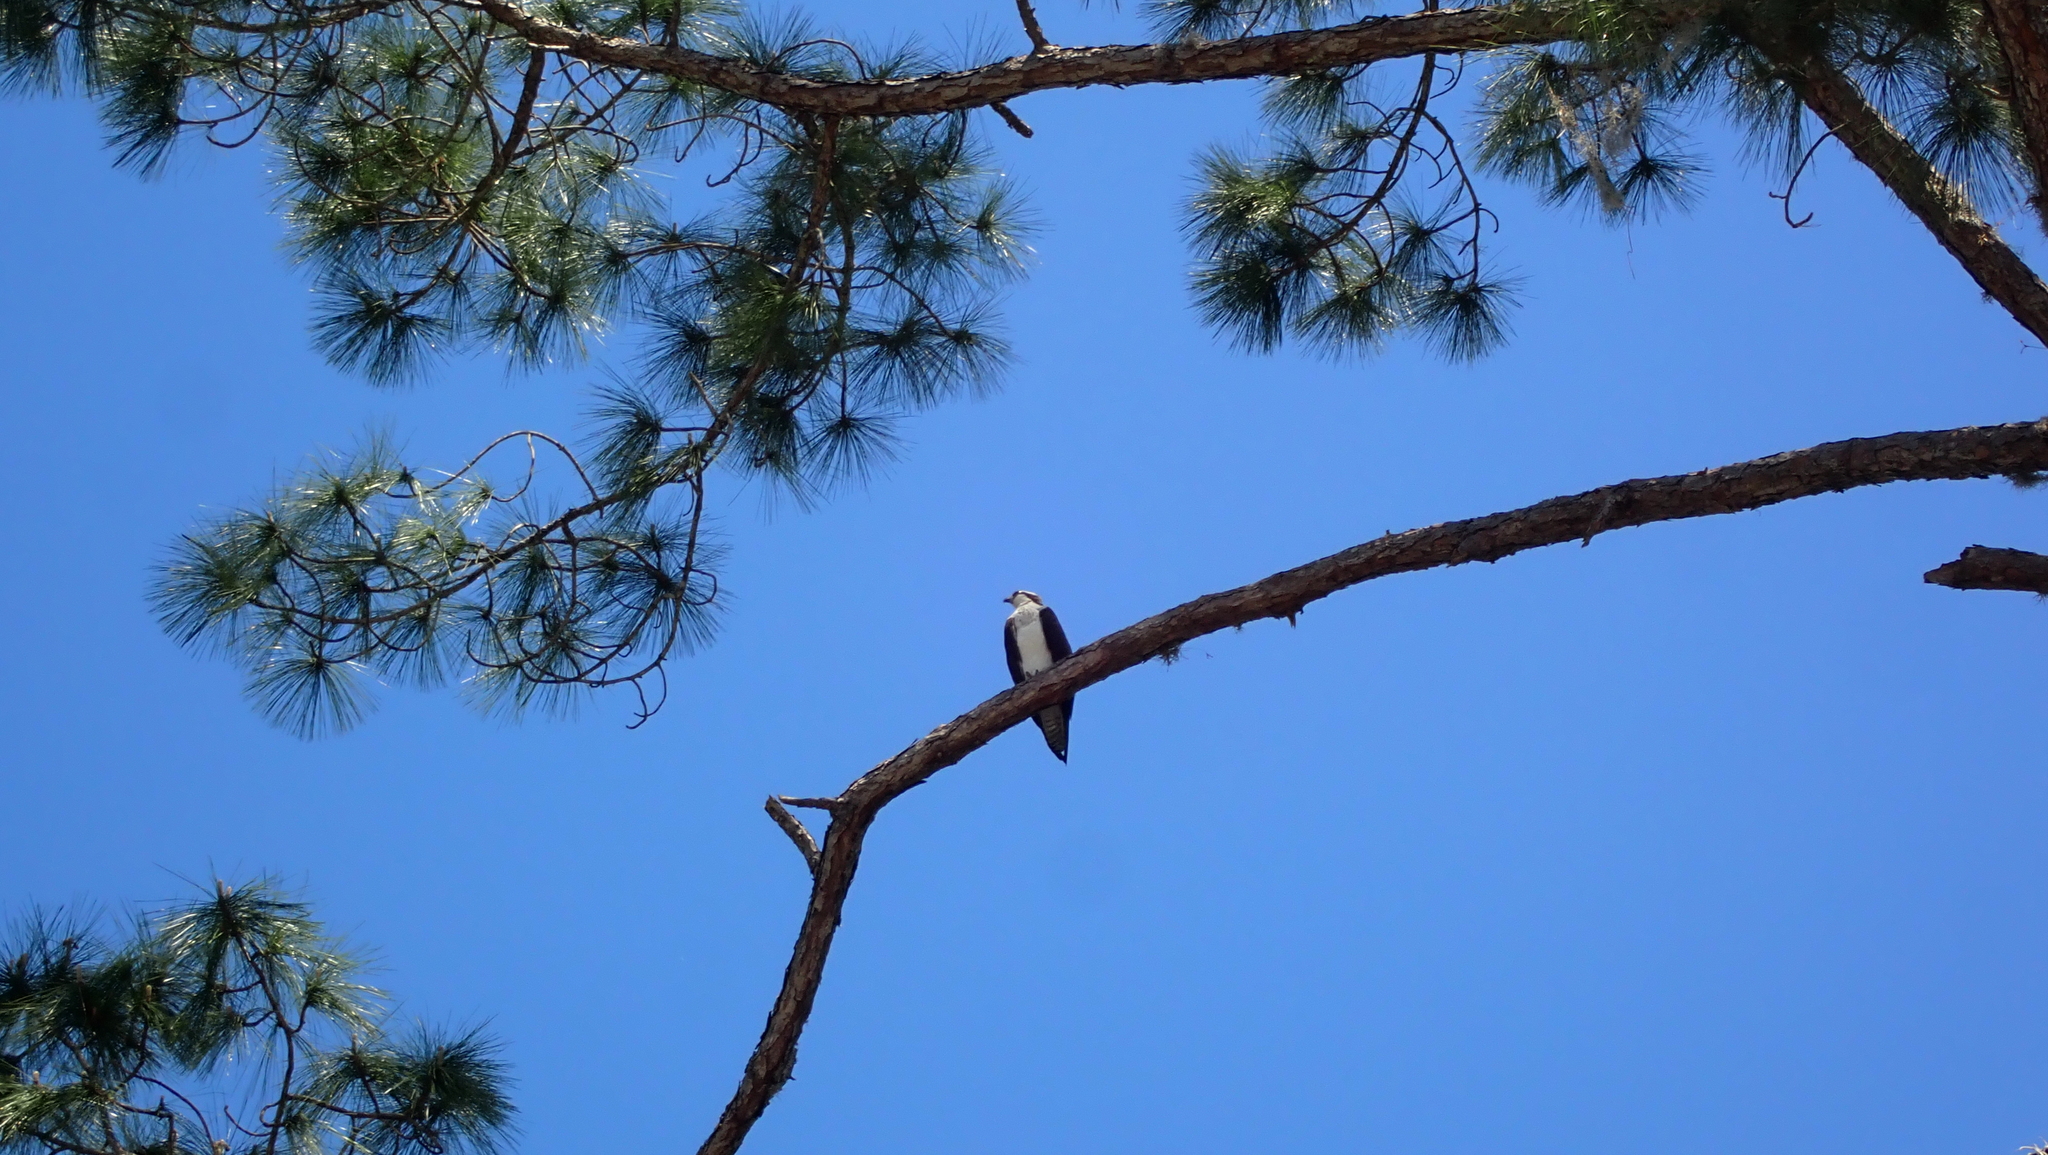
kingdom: Animalia
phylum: Chordata
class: Aves
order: Accipitriformes
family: Pandionidae
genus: Pandion
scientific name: Pandion haliaetus
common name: Osprey
